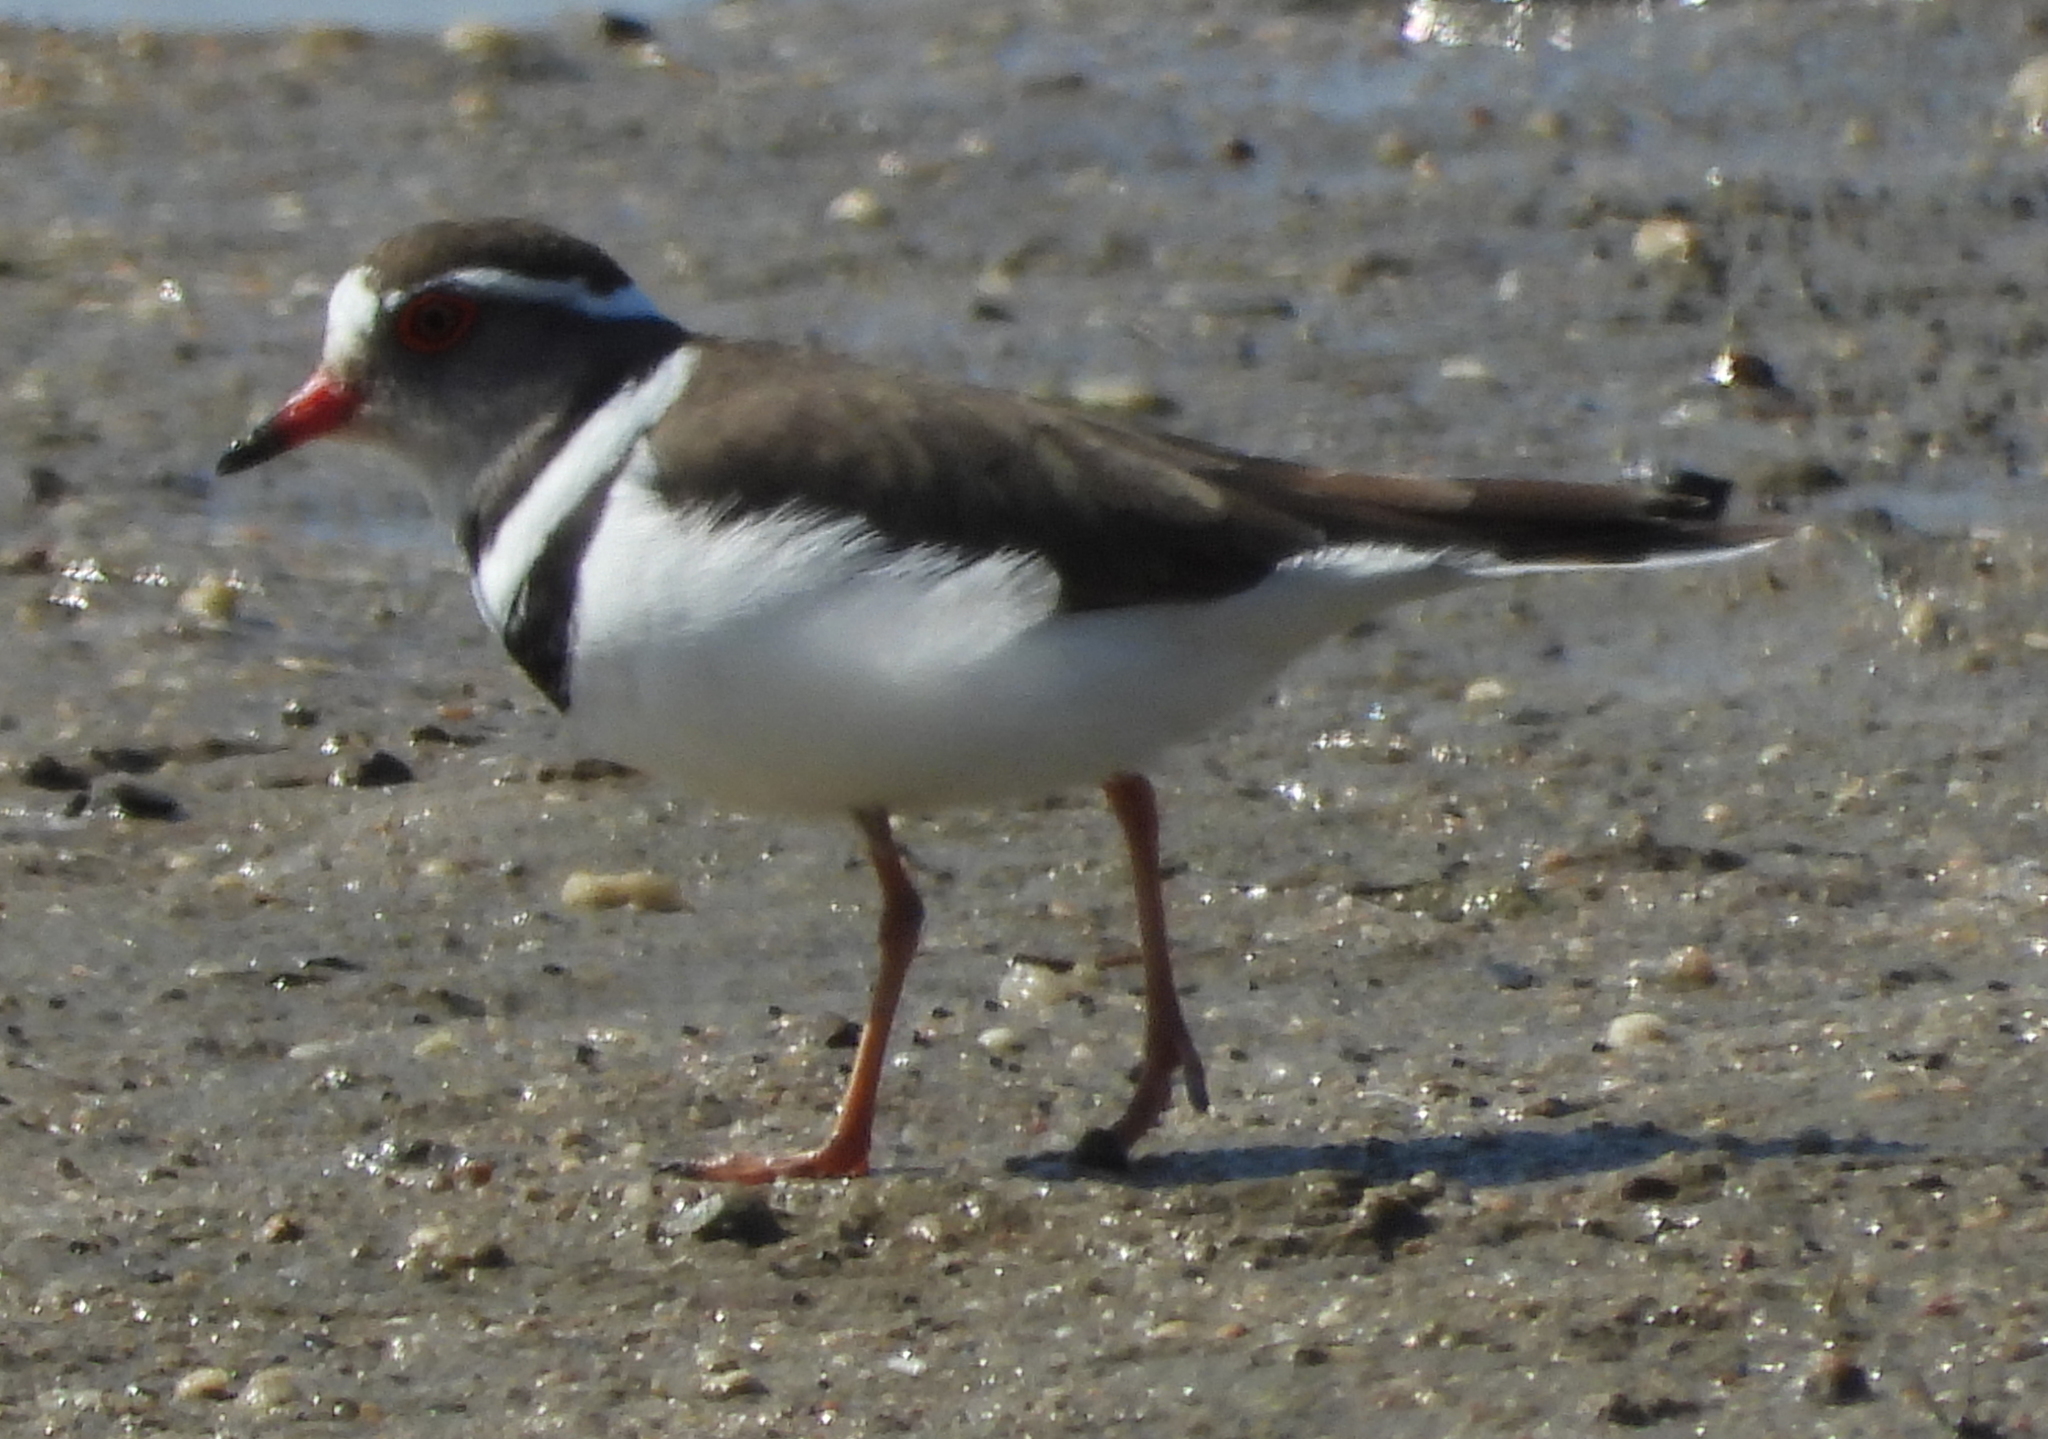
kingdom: Animalia
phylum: Chordata
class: Aves
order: Charadriiformes
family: Charadriidae
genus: Charadrius
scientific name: Charadrius tricollaris
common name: Three-banded plover
